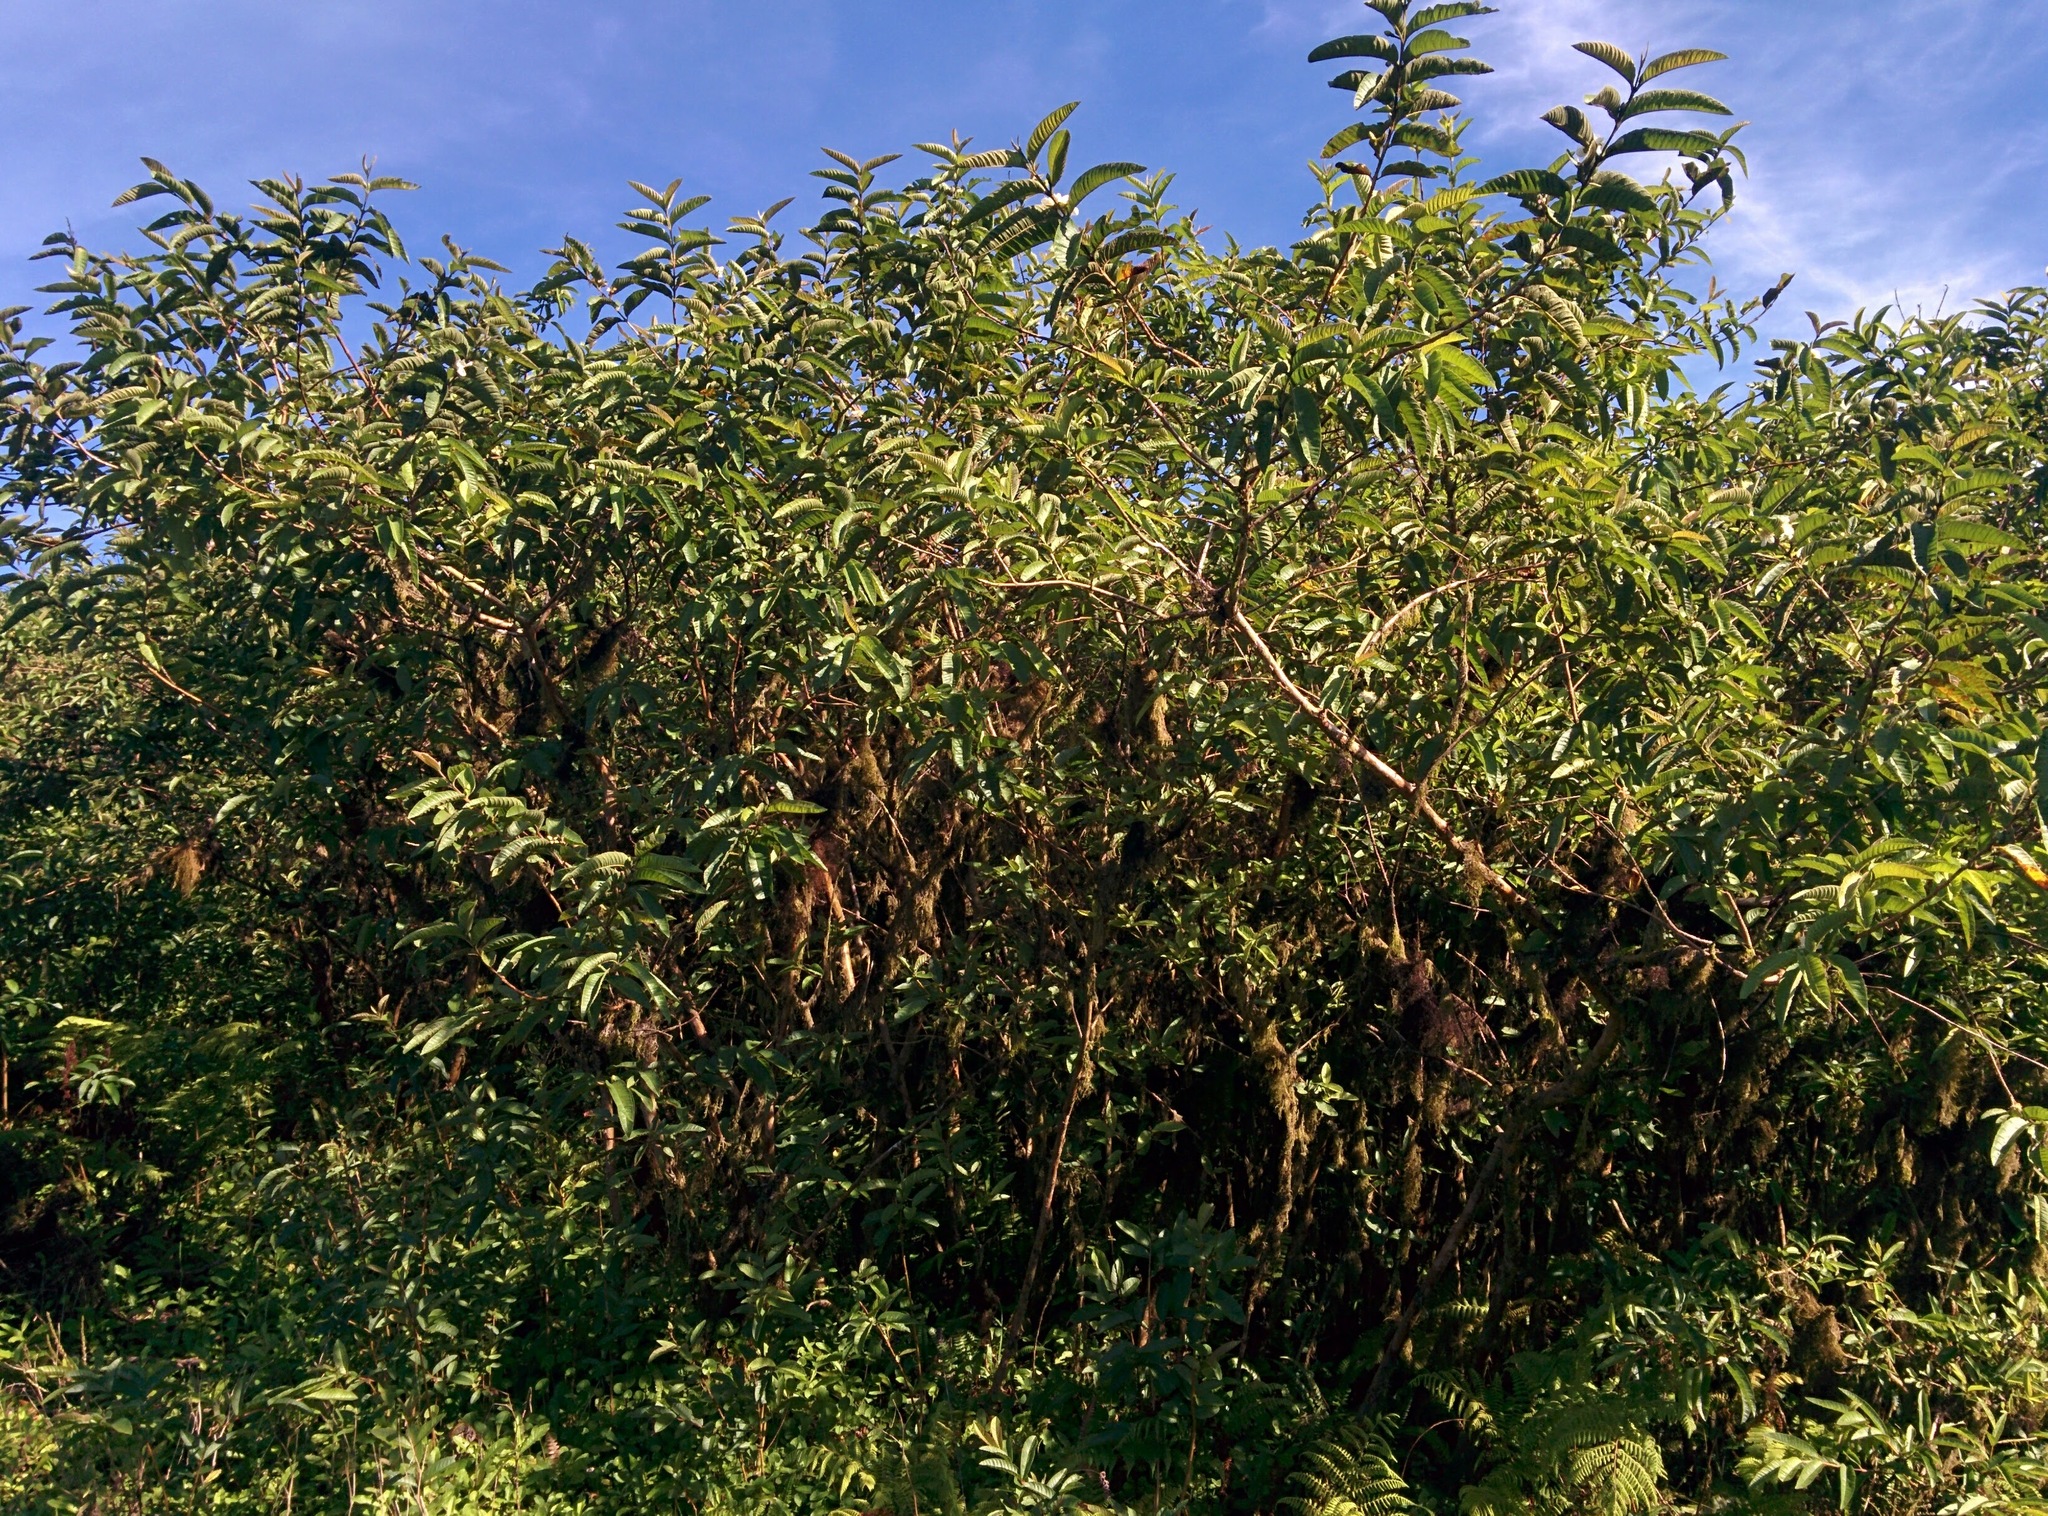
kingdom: Plantae
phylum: Tracheophyta
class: Magnoliopsida
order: Myrtales
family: Myrtaceae
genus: Psidium
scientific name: Psidium guajava
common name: Guava
